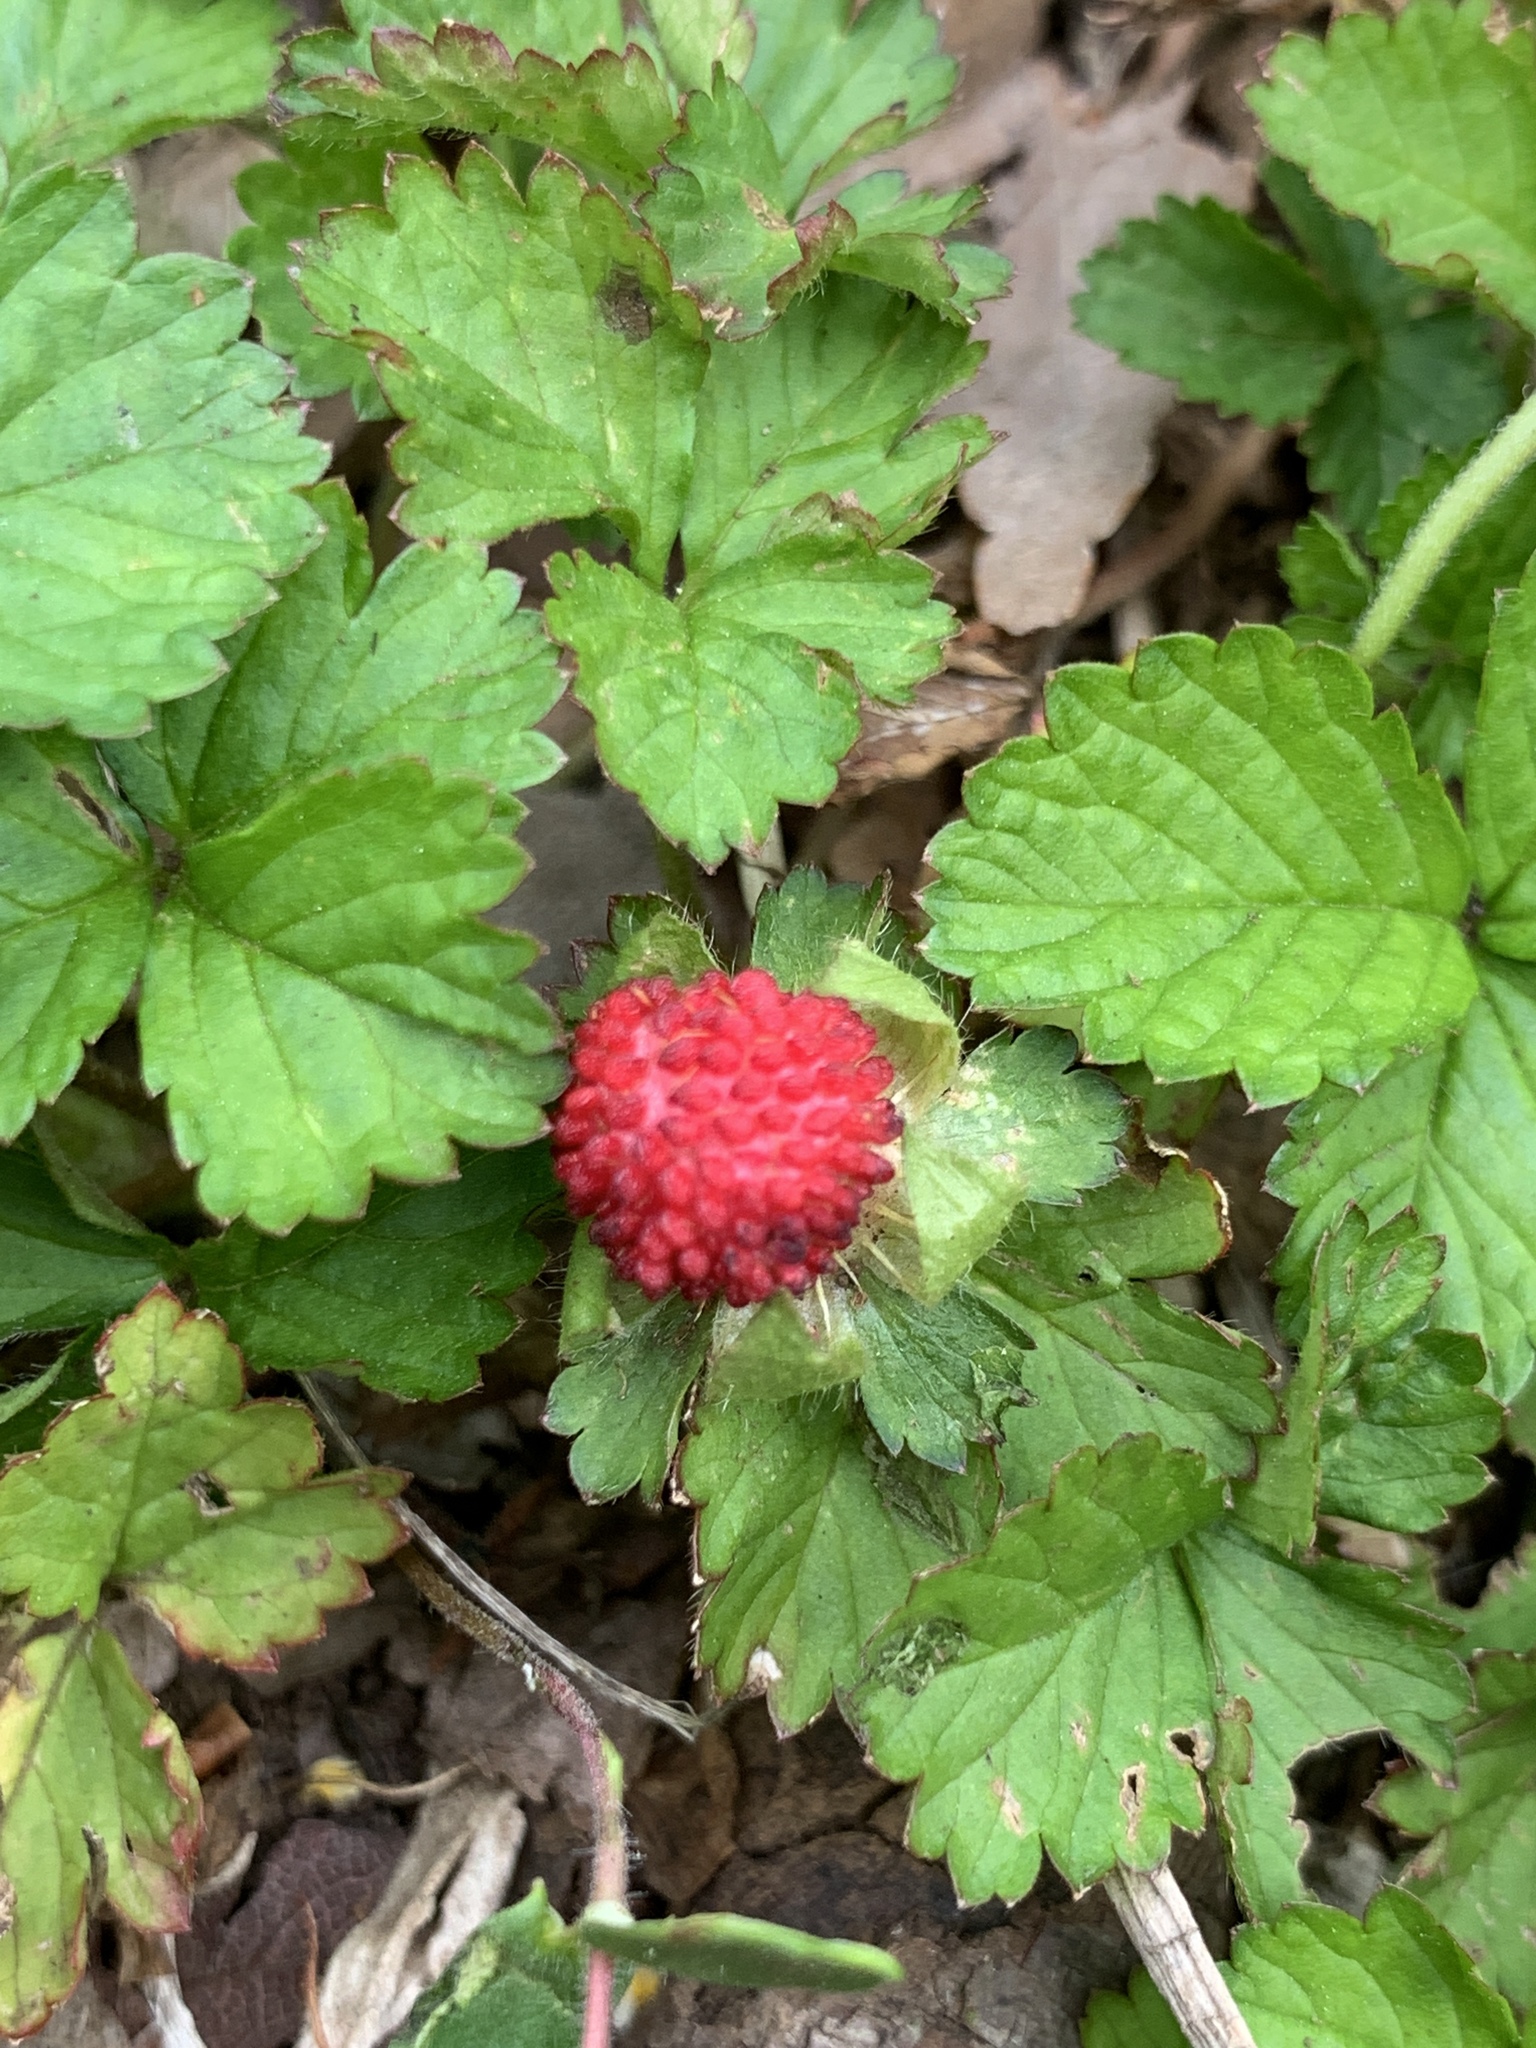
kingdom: Plantae
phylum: Tracheophyta
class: Magnoliopsida
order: Rosales
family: Rosaceae
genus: Potentilla
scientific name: Potentilla indica
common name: Yellow-flowered strawberry
